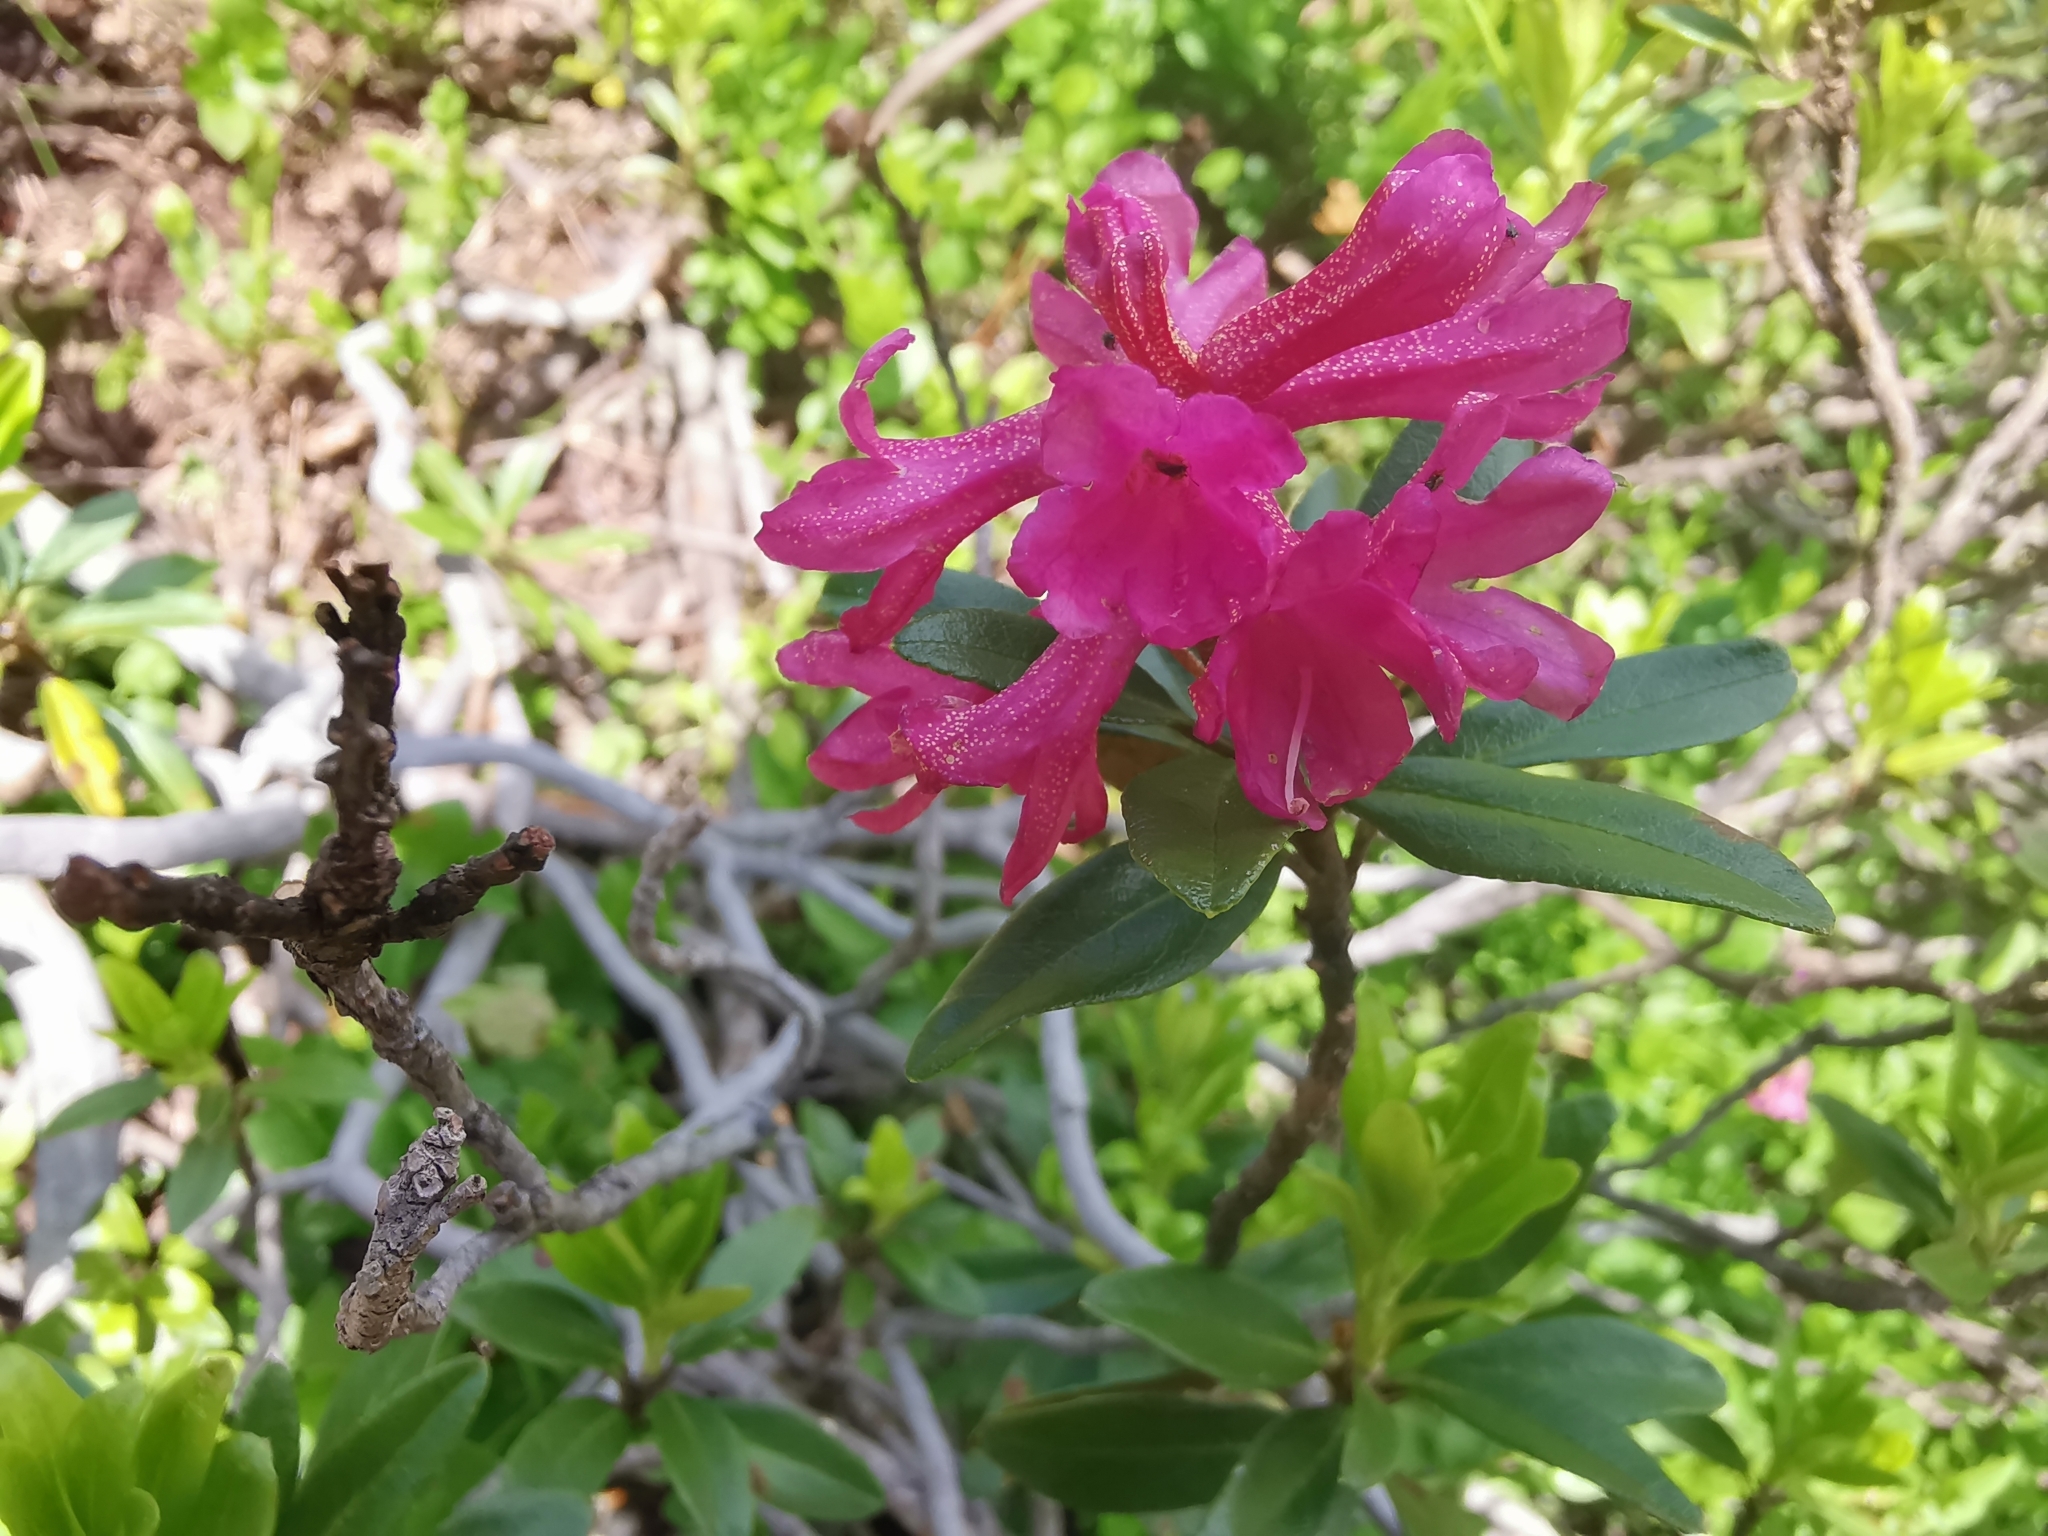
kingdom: Plantae
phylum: Tracheophyta
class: Magnoliopsida
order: Ericales
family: Ericaceae
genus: Rhododendron
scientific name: Rhododendron ferrugineum
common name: Alpenrose
